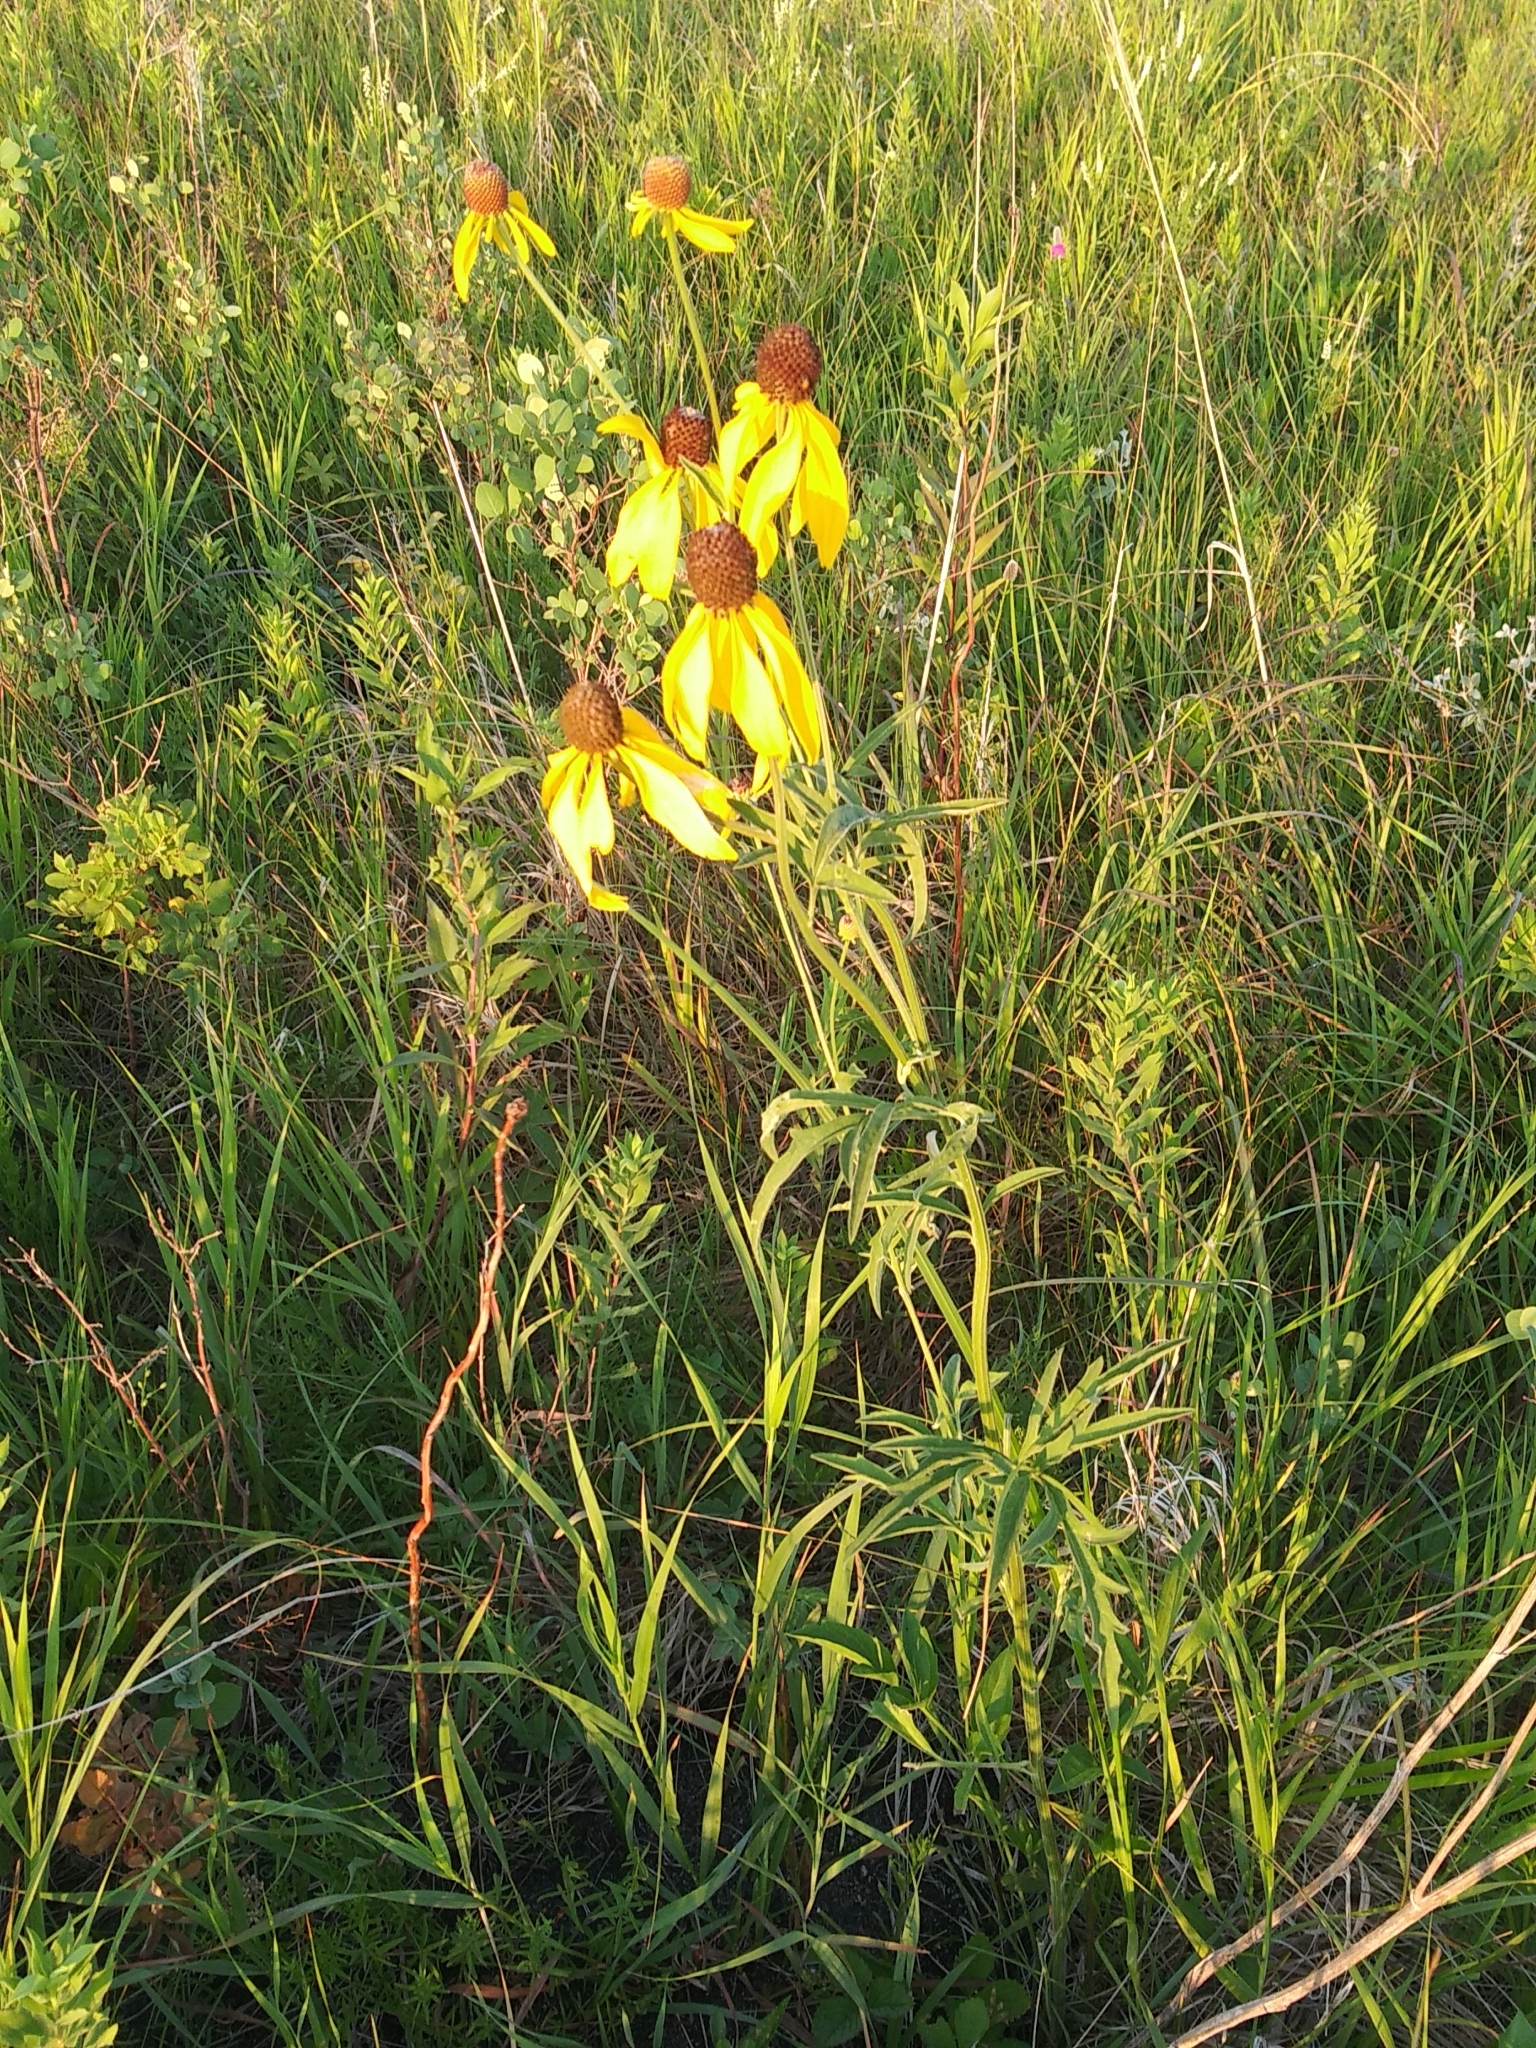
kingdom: Plantae
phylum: Tracheophyta
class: Magnoliopsida
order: Asterales
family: Asteraceae
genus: Ratibida
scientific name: Ratibida pinnata
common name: Drooping prairie-coneflower
